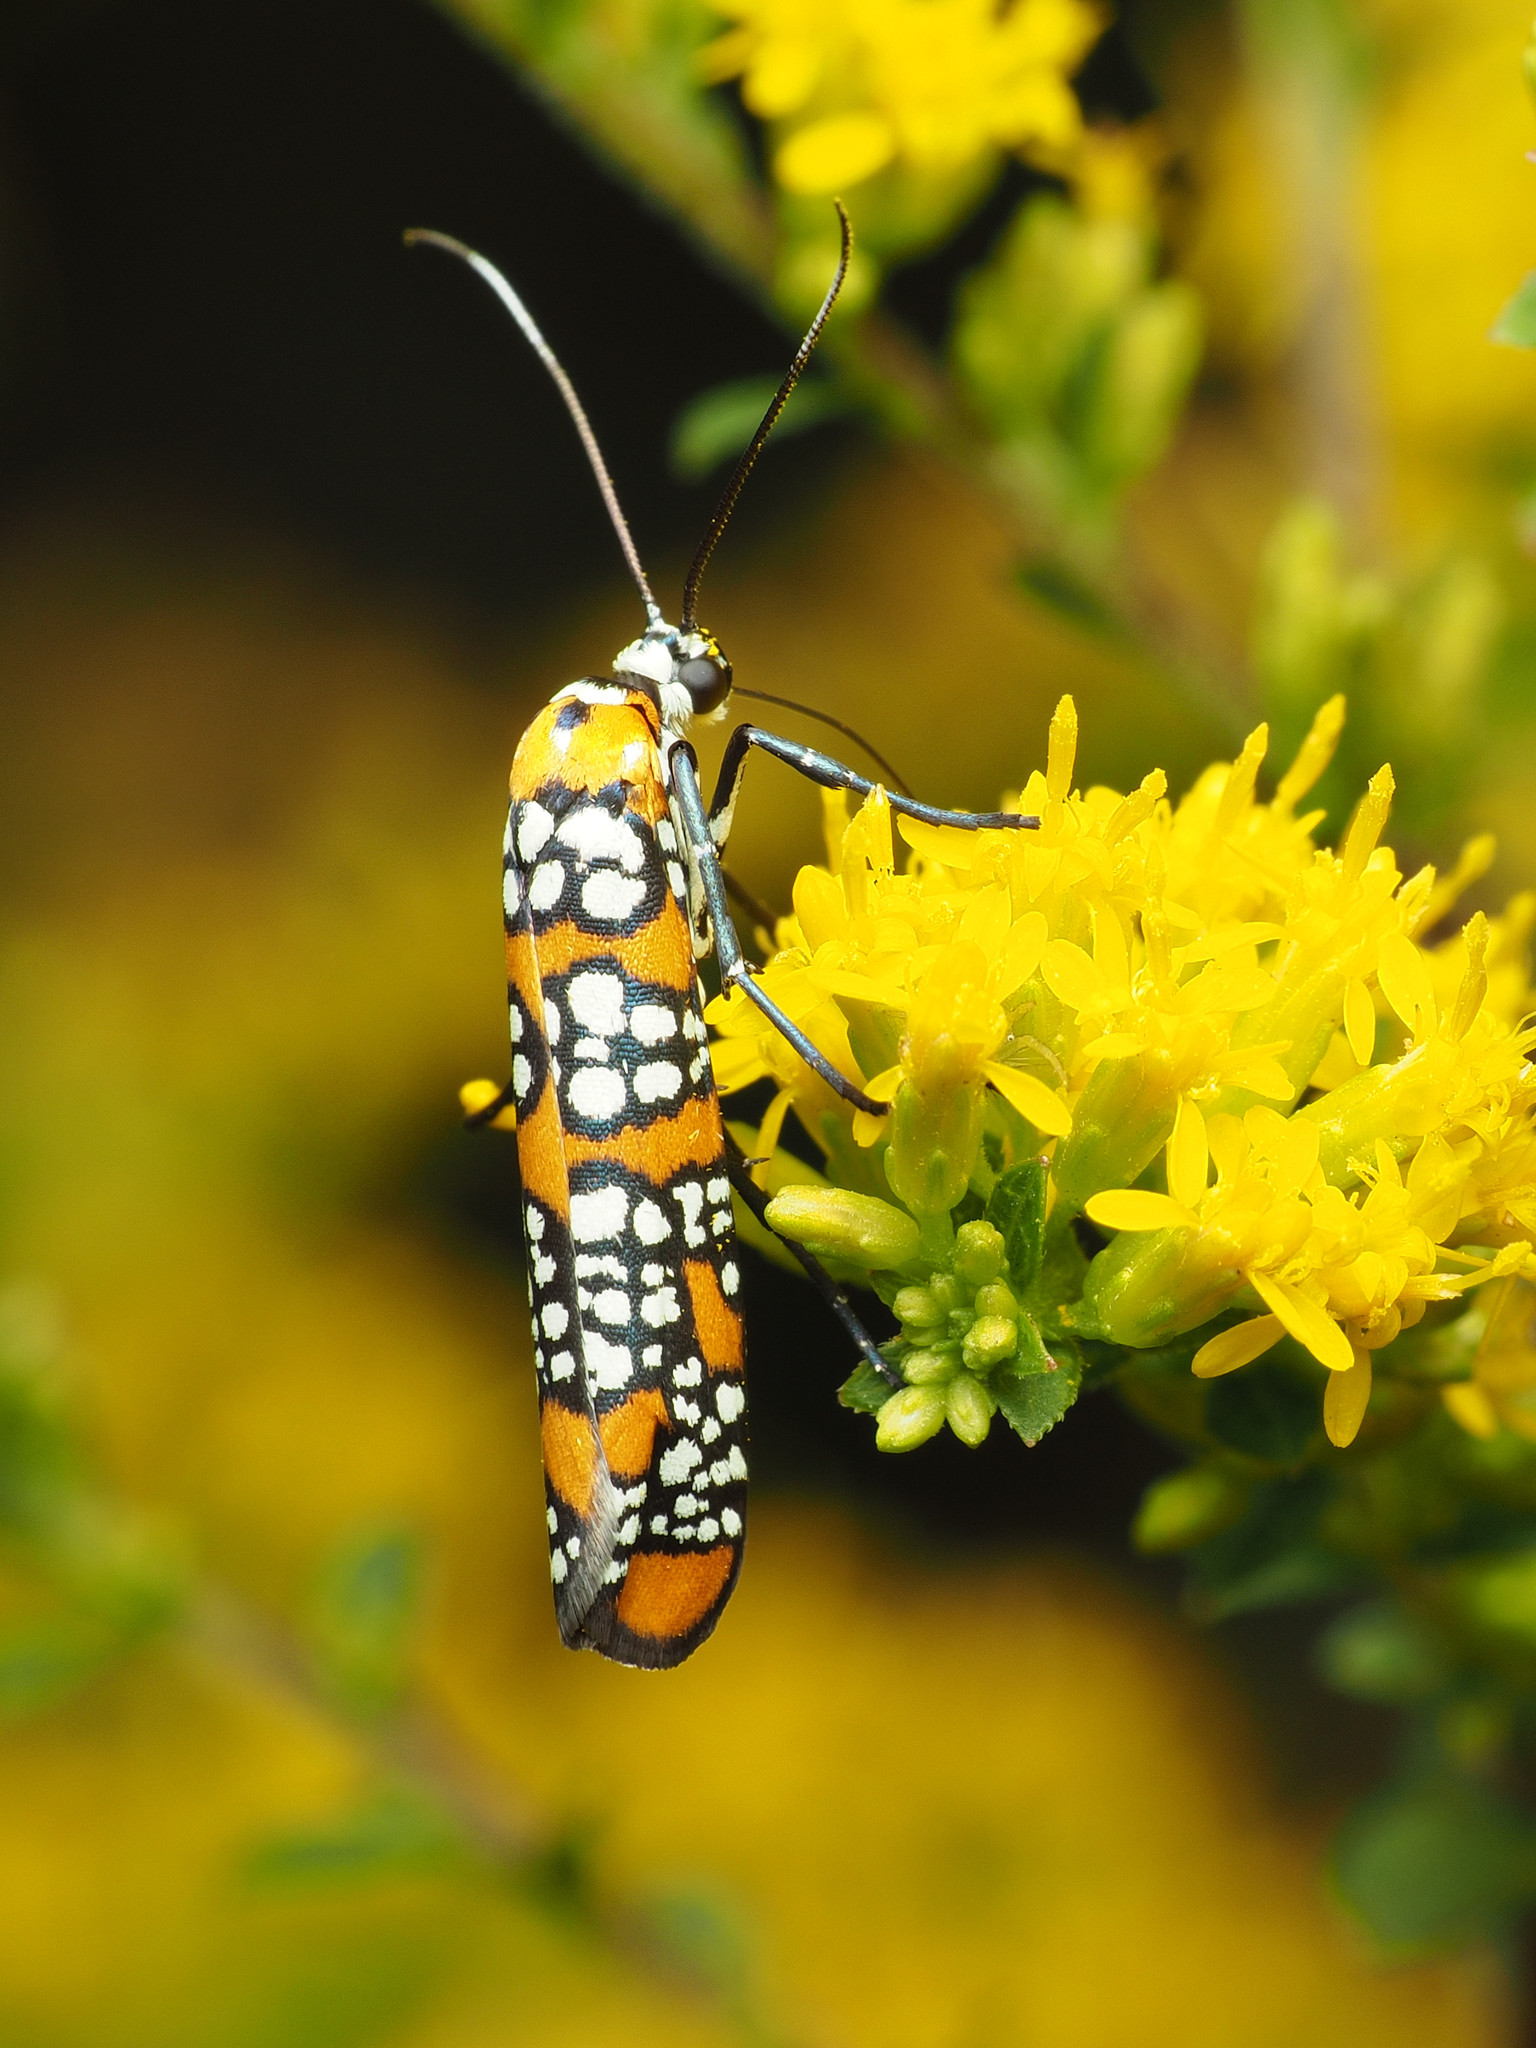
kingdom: Animalia
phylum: Arthropoda
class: Insecta
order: Lepidoptera
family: Attevidae
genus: Atteva
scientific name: Atteva punctella
